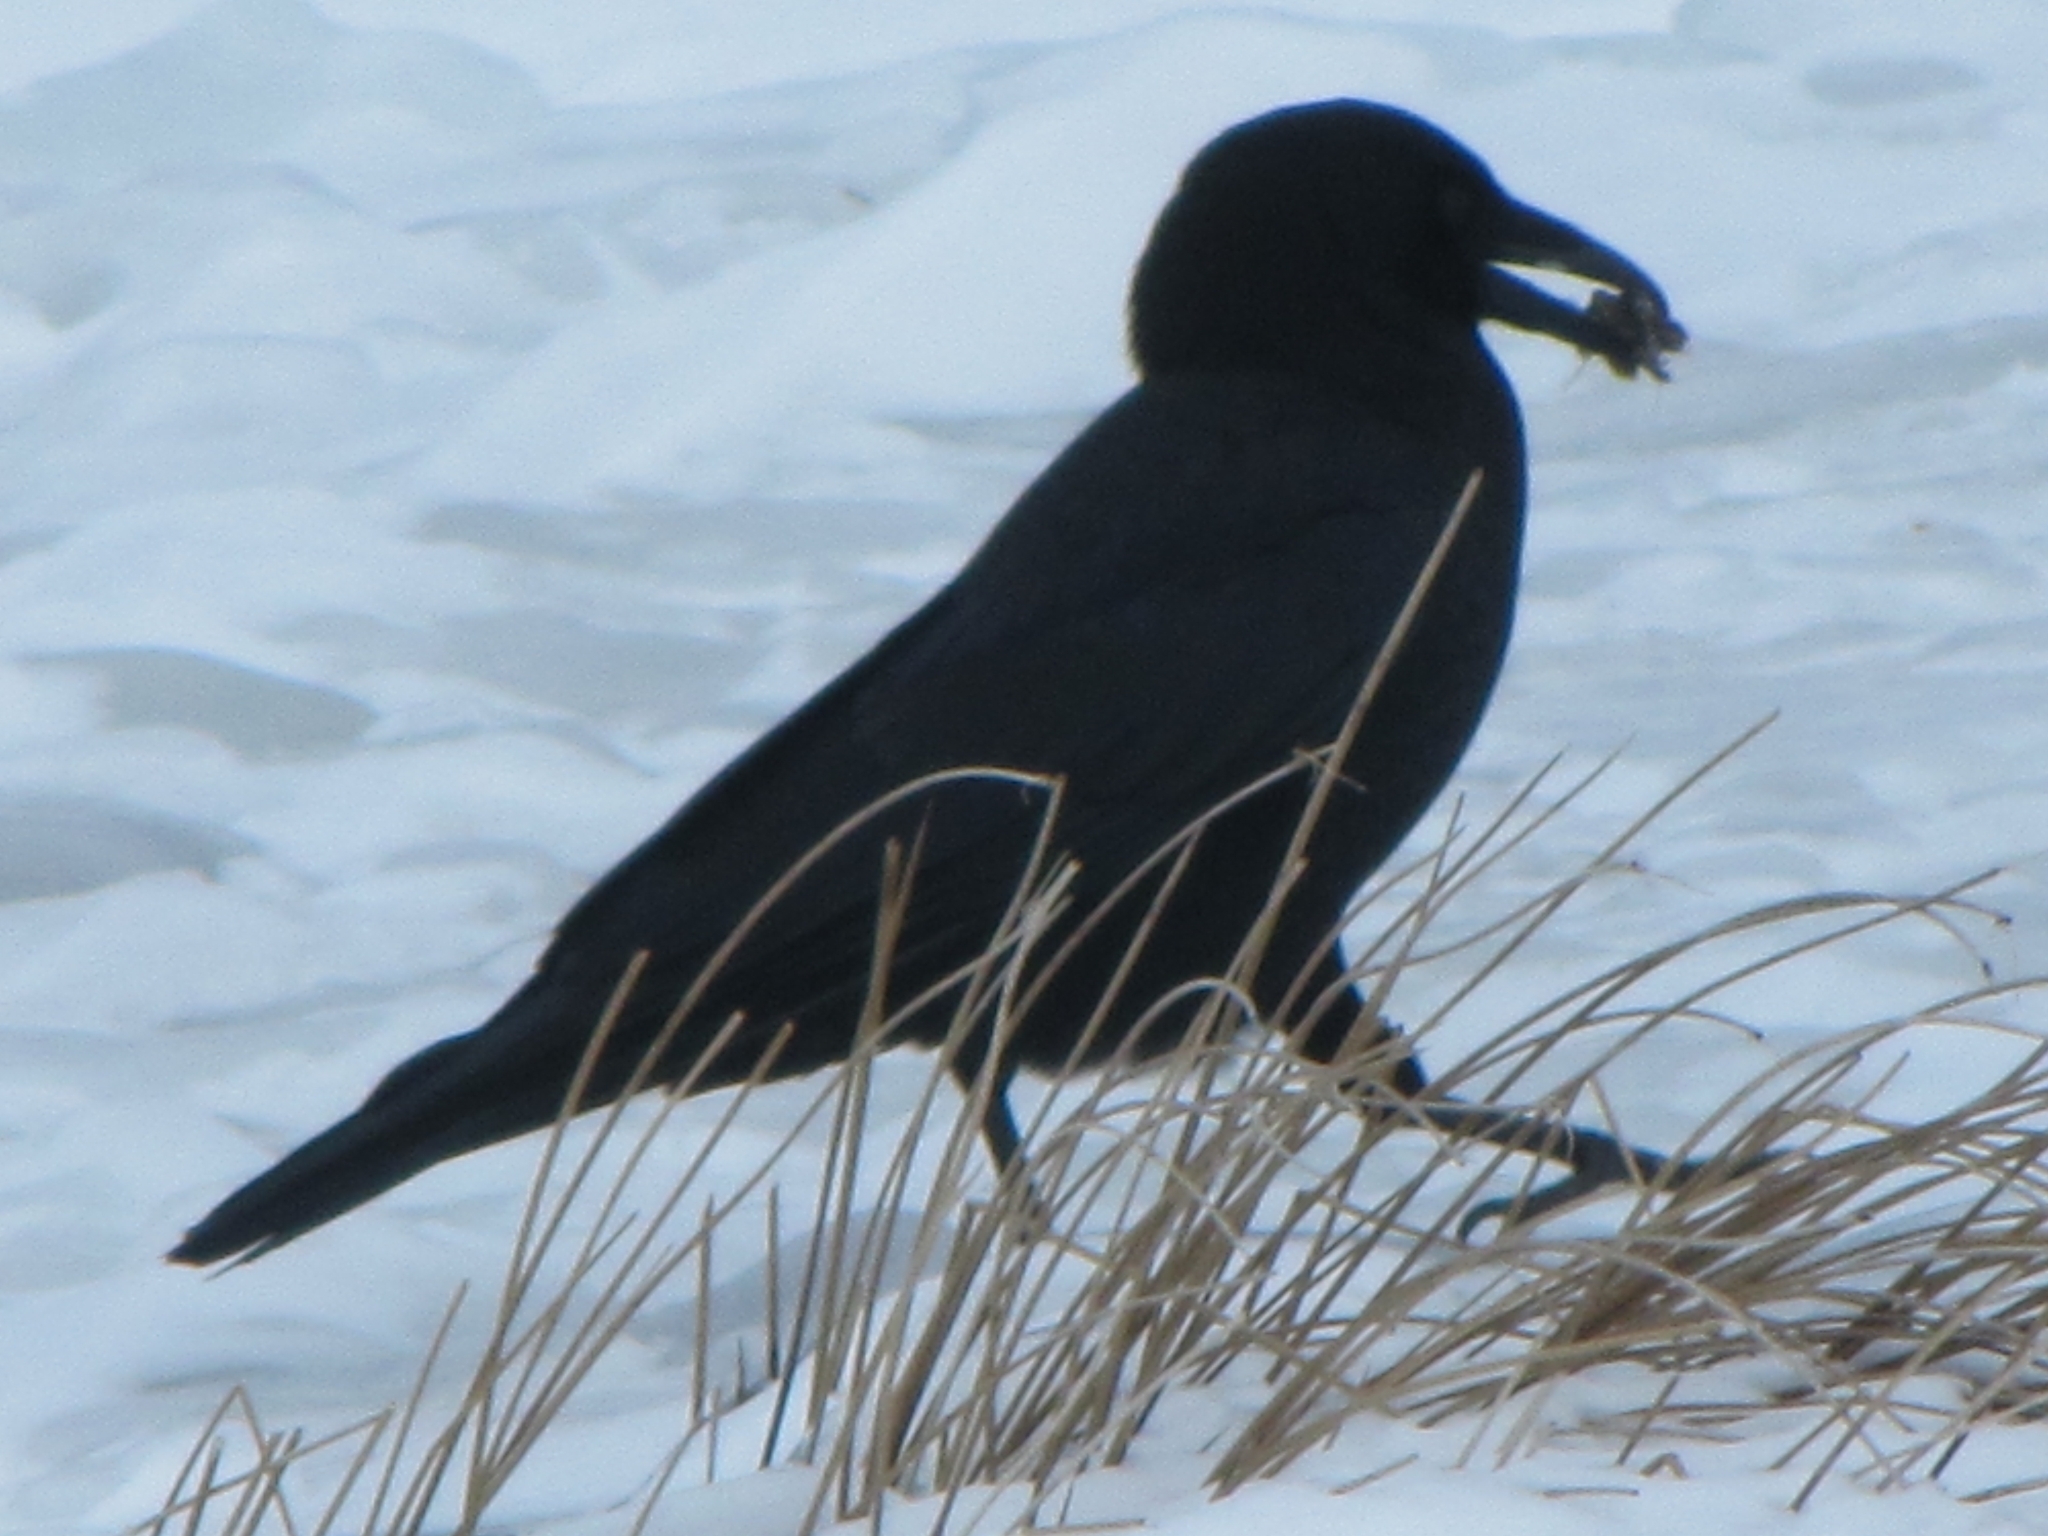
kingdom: Animalia
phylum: Chordata
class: Aves
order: Passeriformes
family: Corvidae
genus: Corvus
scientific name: Corvus brachyrhynchos
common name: American crow
